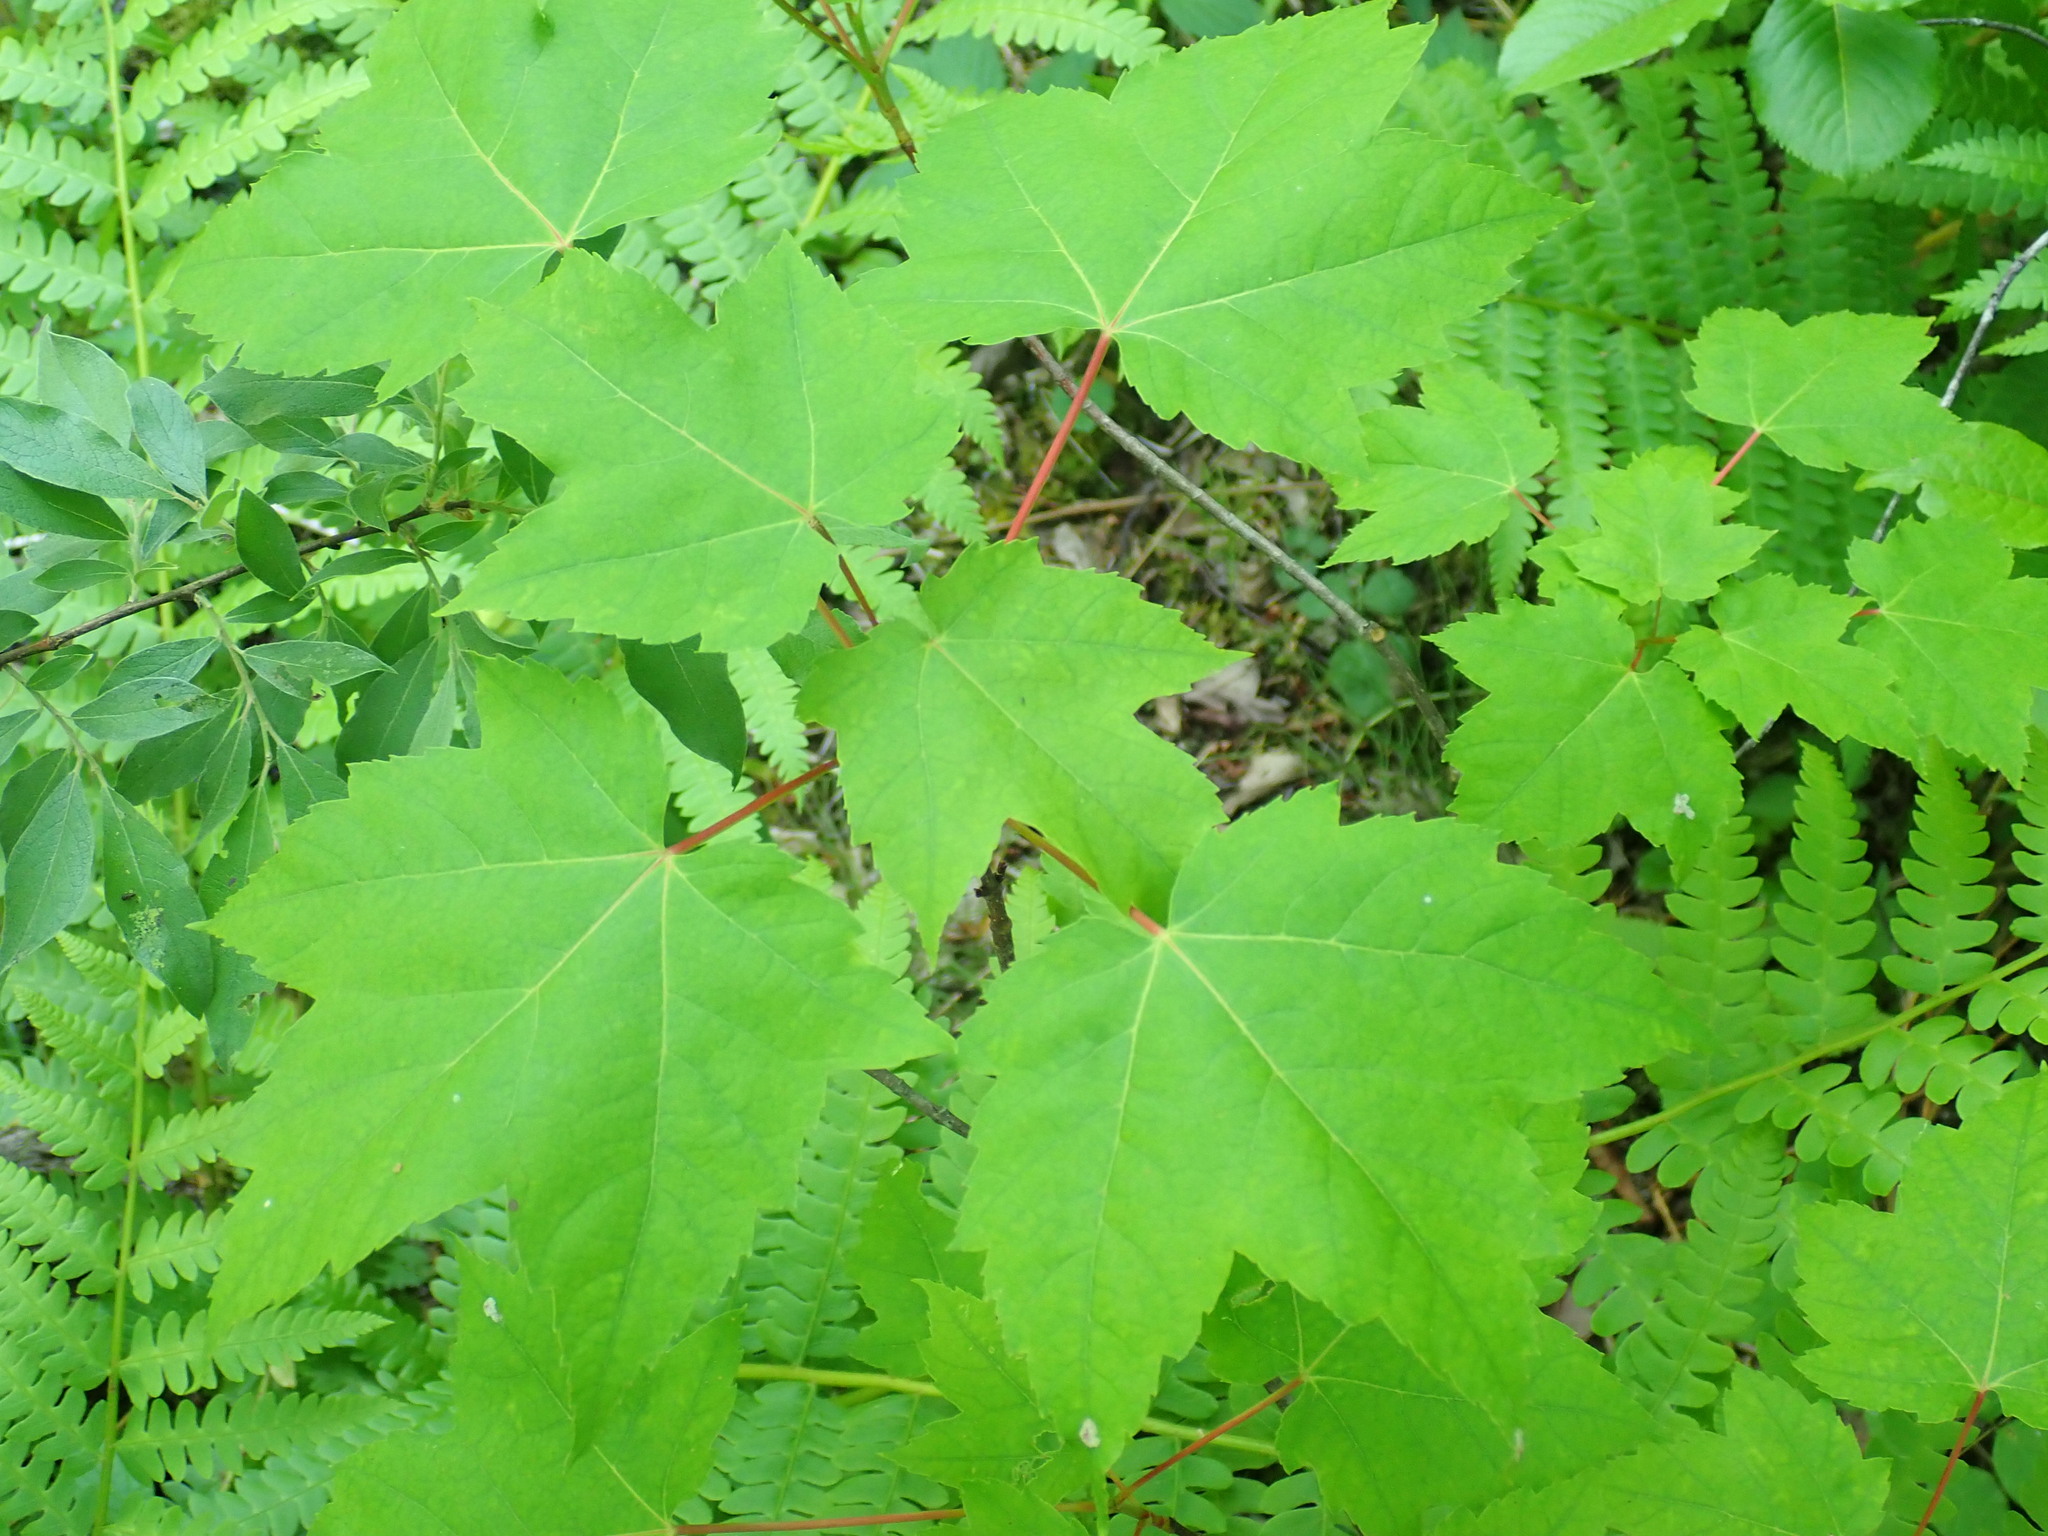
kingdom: Plantae
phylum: Tracheophyta
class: Magnoliopsida
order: Sapindales
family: Sapindaceae
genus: Acer
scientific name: Acer rubrum
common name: Red maple
